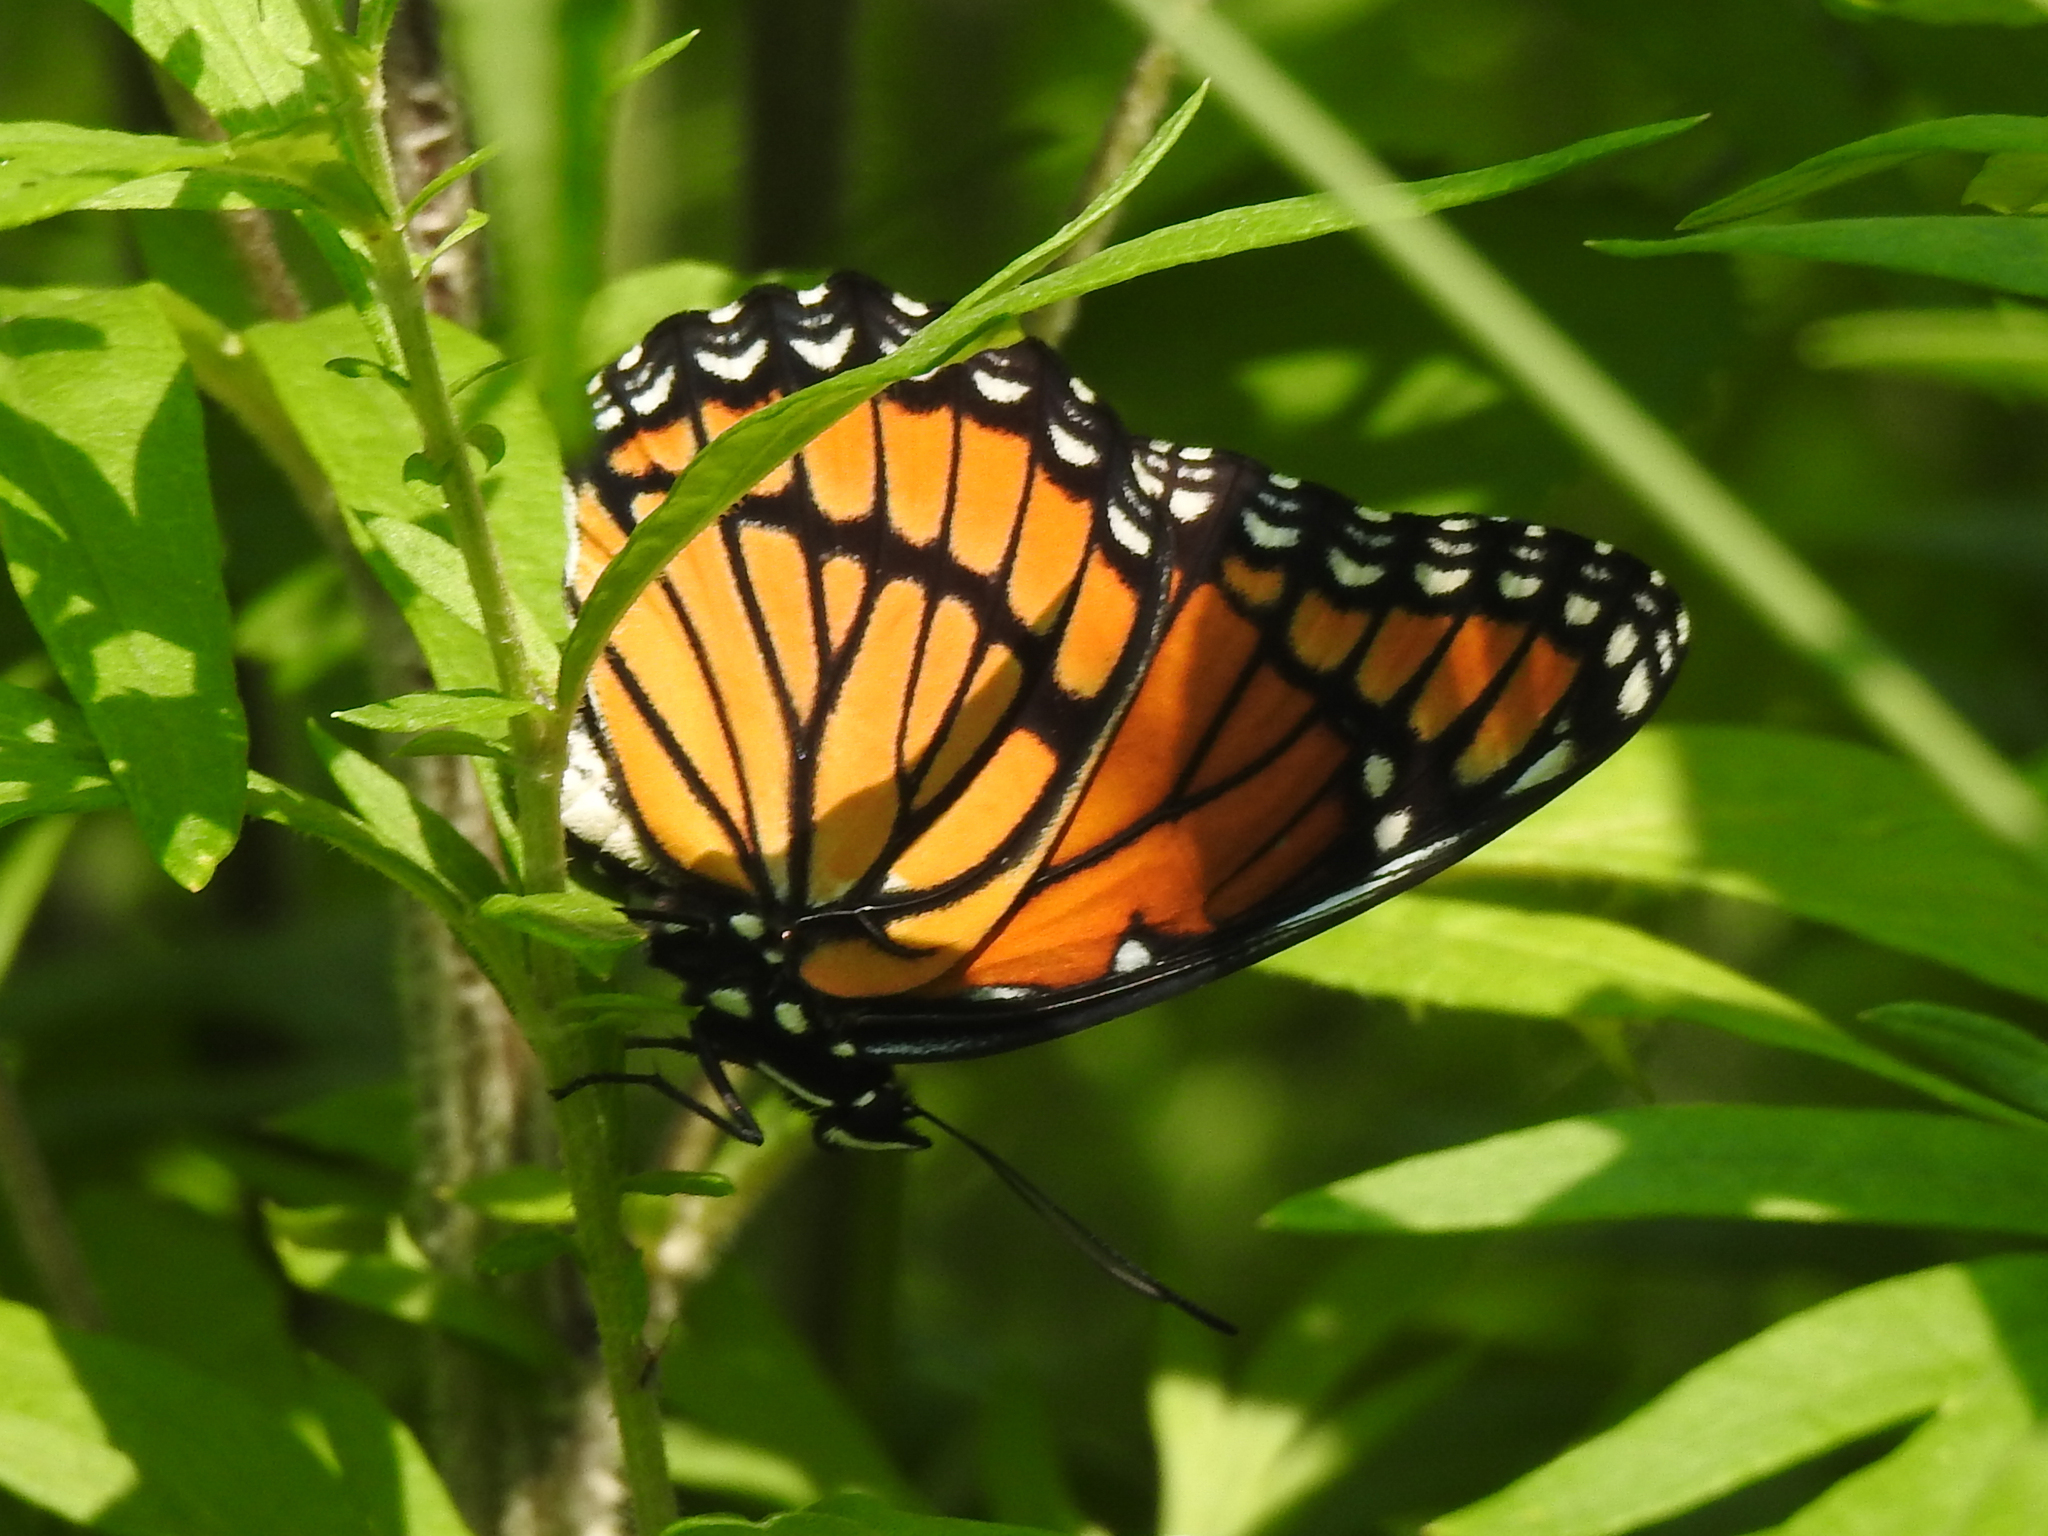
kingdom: Animalia
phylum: Arthropoda
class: Insecta
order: Lepidoptera
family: Nymphalidae
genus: Limenitis
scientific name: Limenitis archippus
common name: Viceroy
